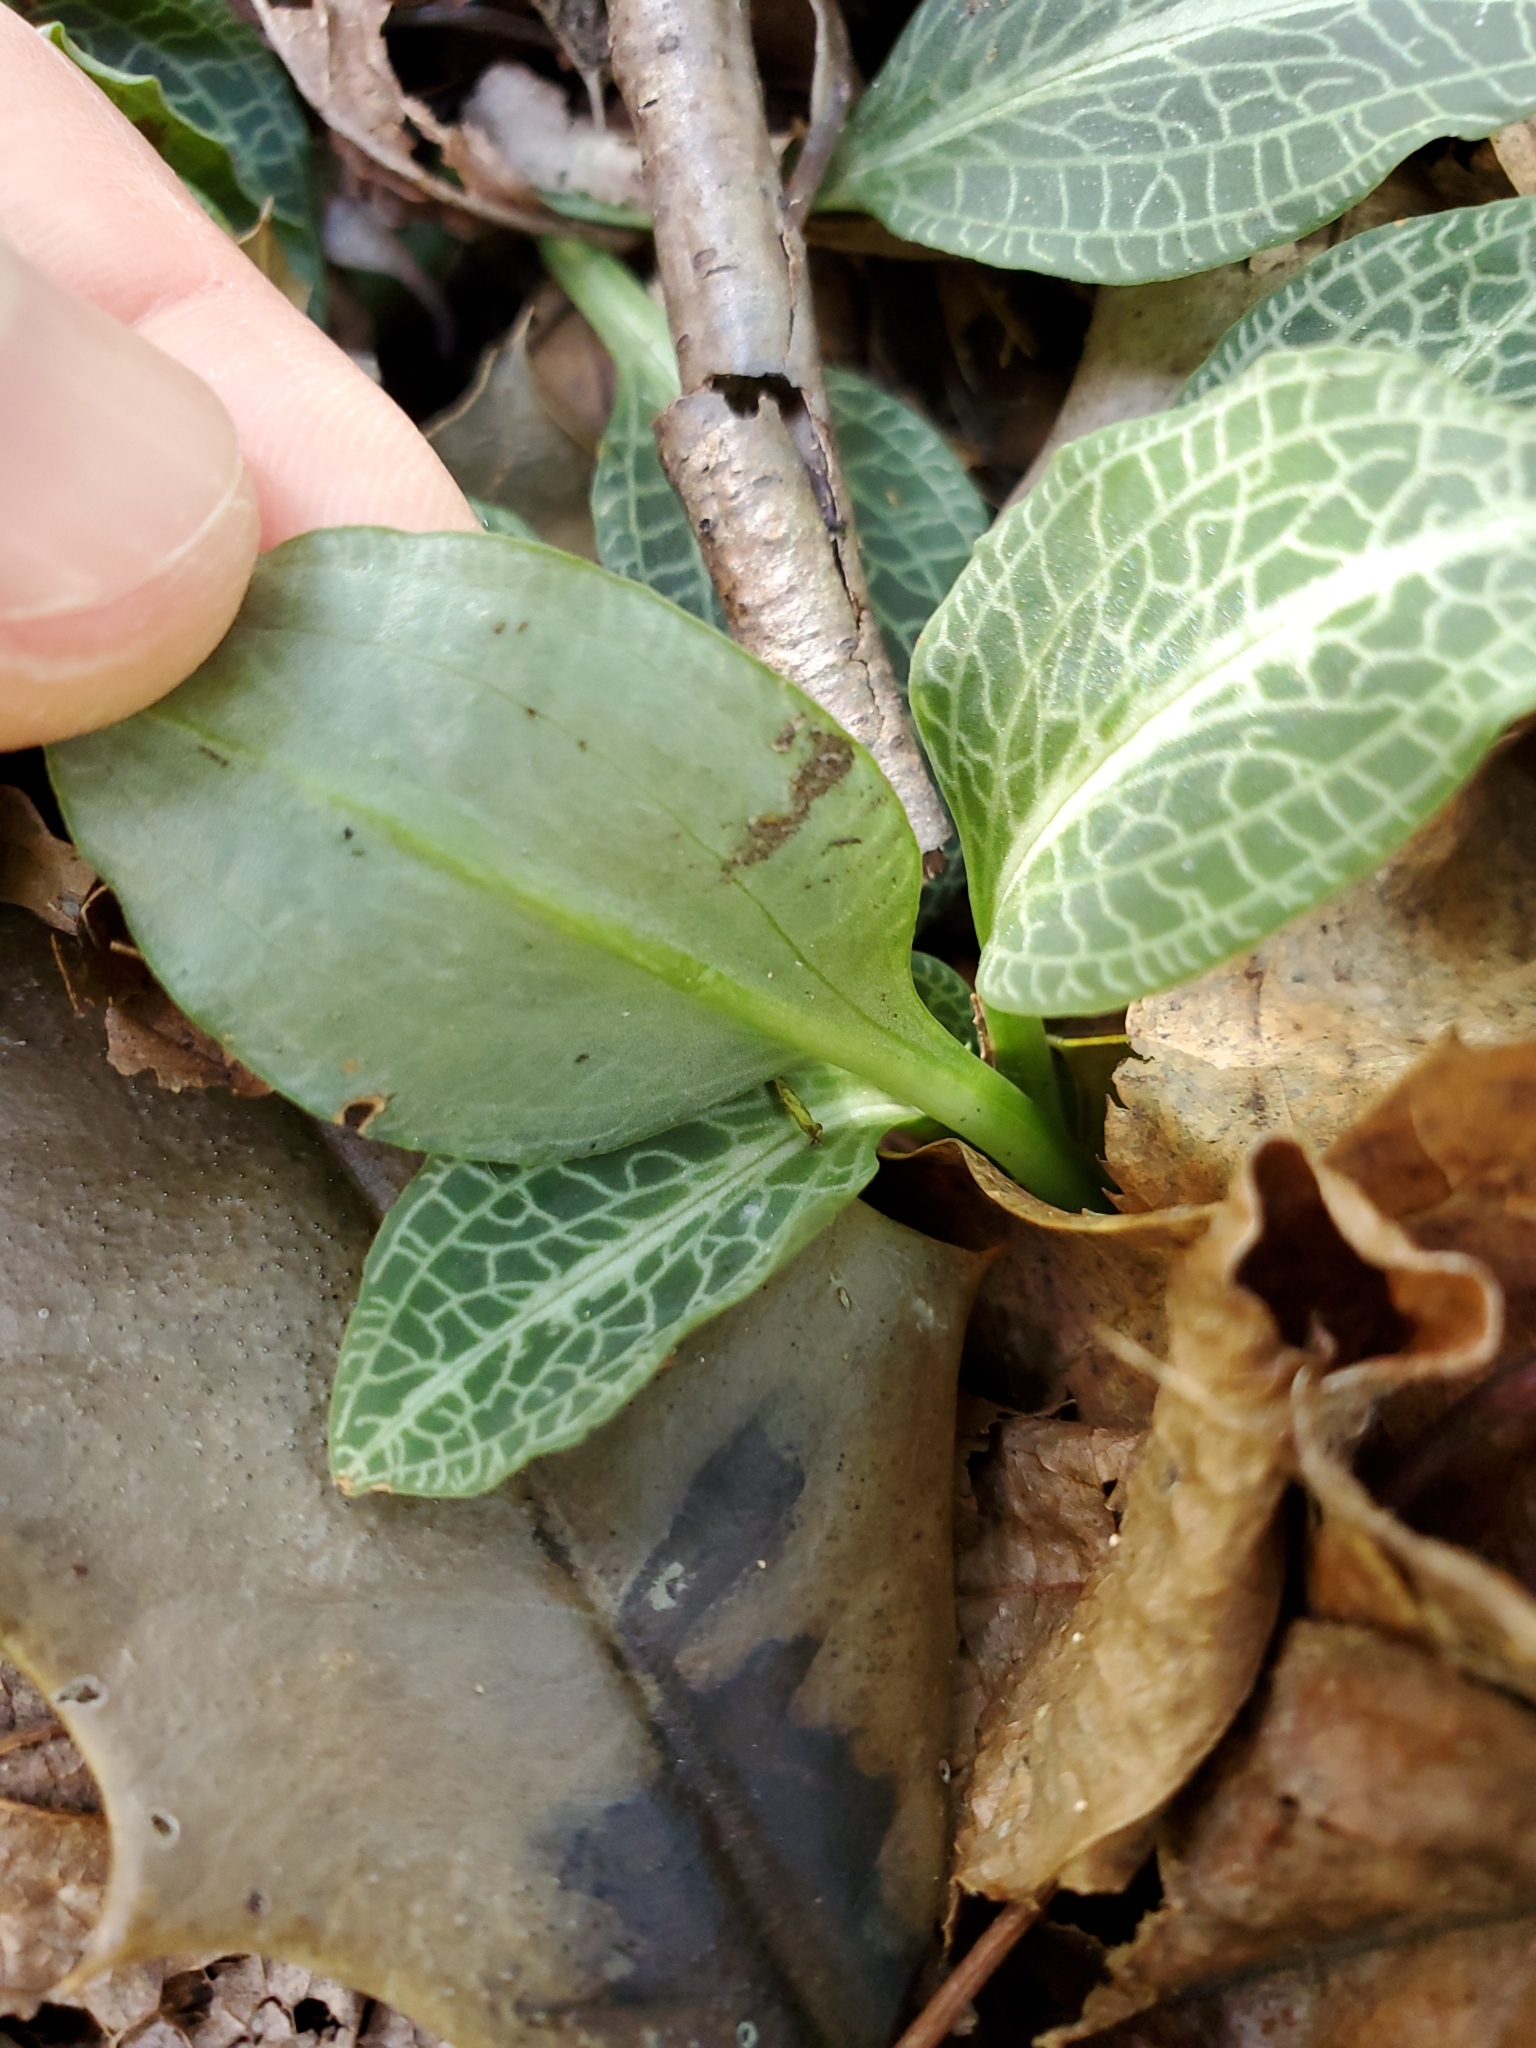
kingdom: Plantae
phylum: Tracheophyta
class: Liliopsida
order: Asparagales
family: Orchidaceae
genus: Goodyera
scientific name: Goodyera pubescens
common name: Downy rattlesnake-plantain
